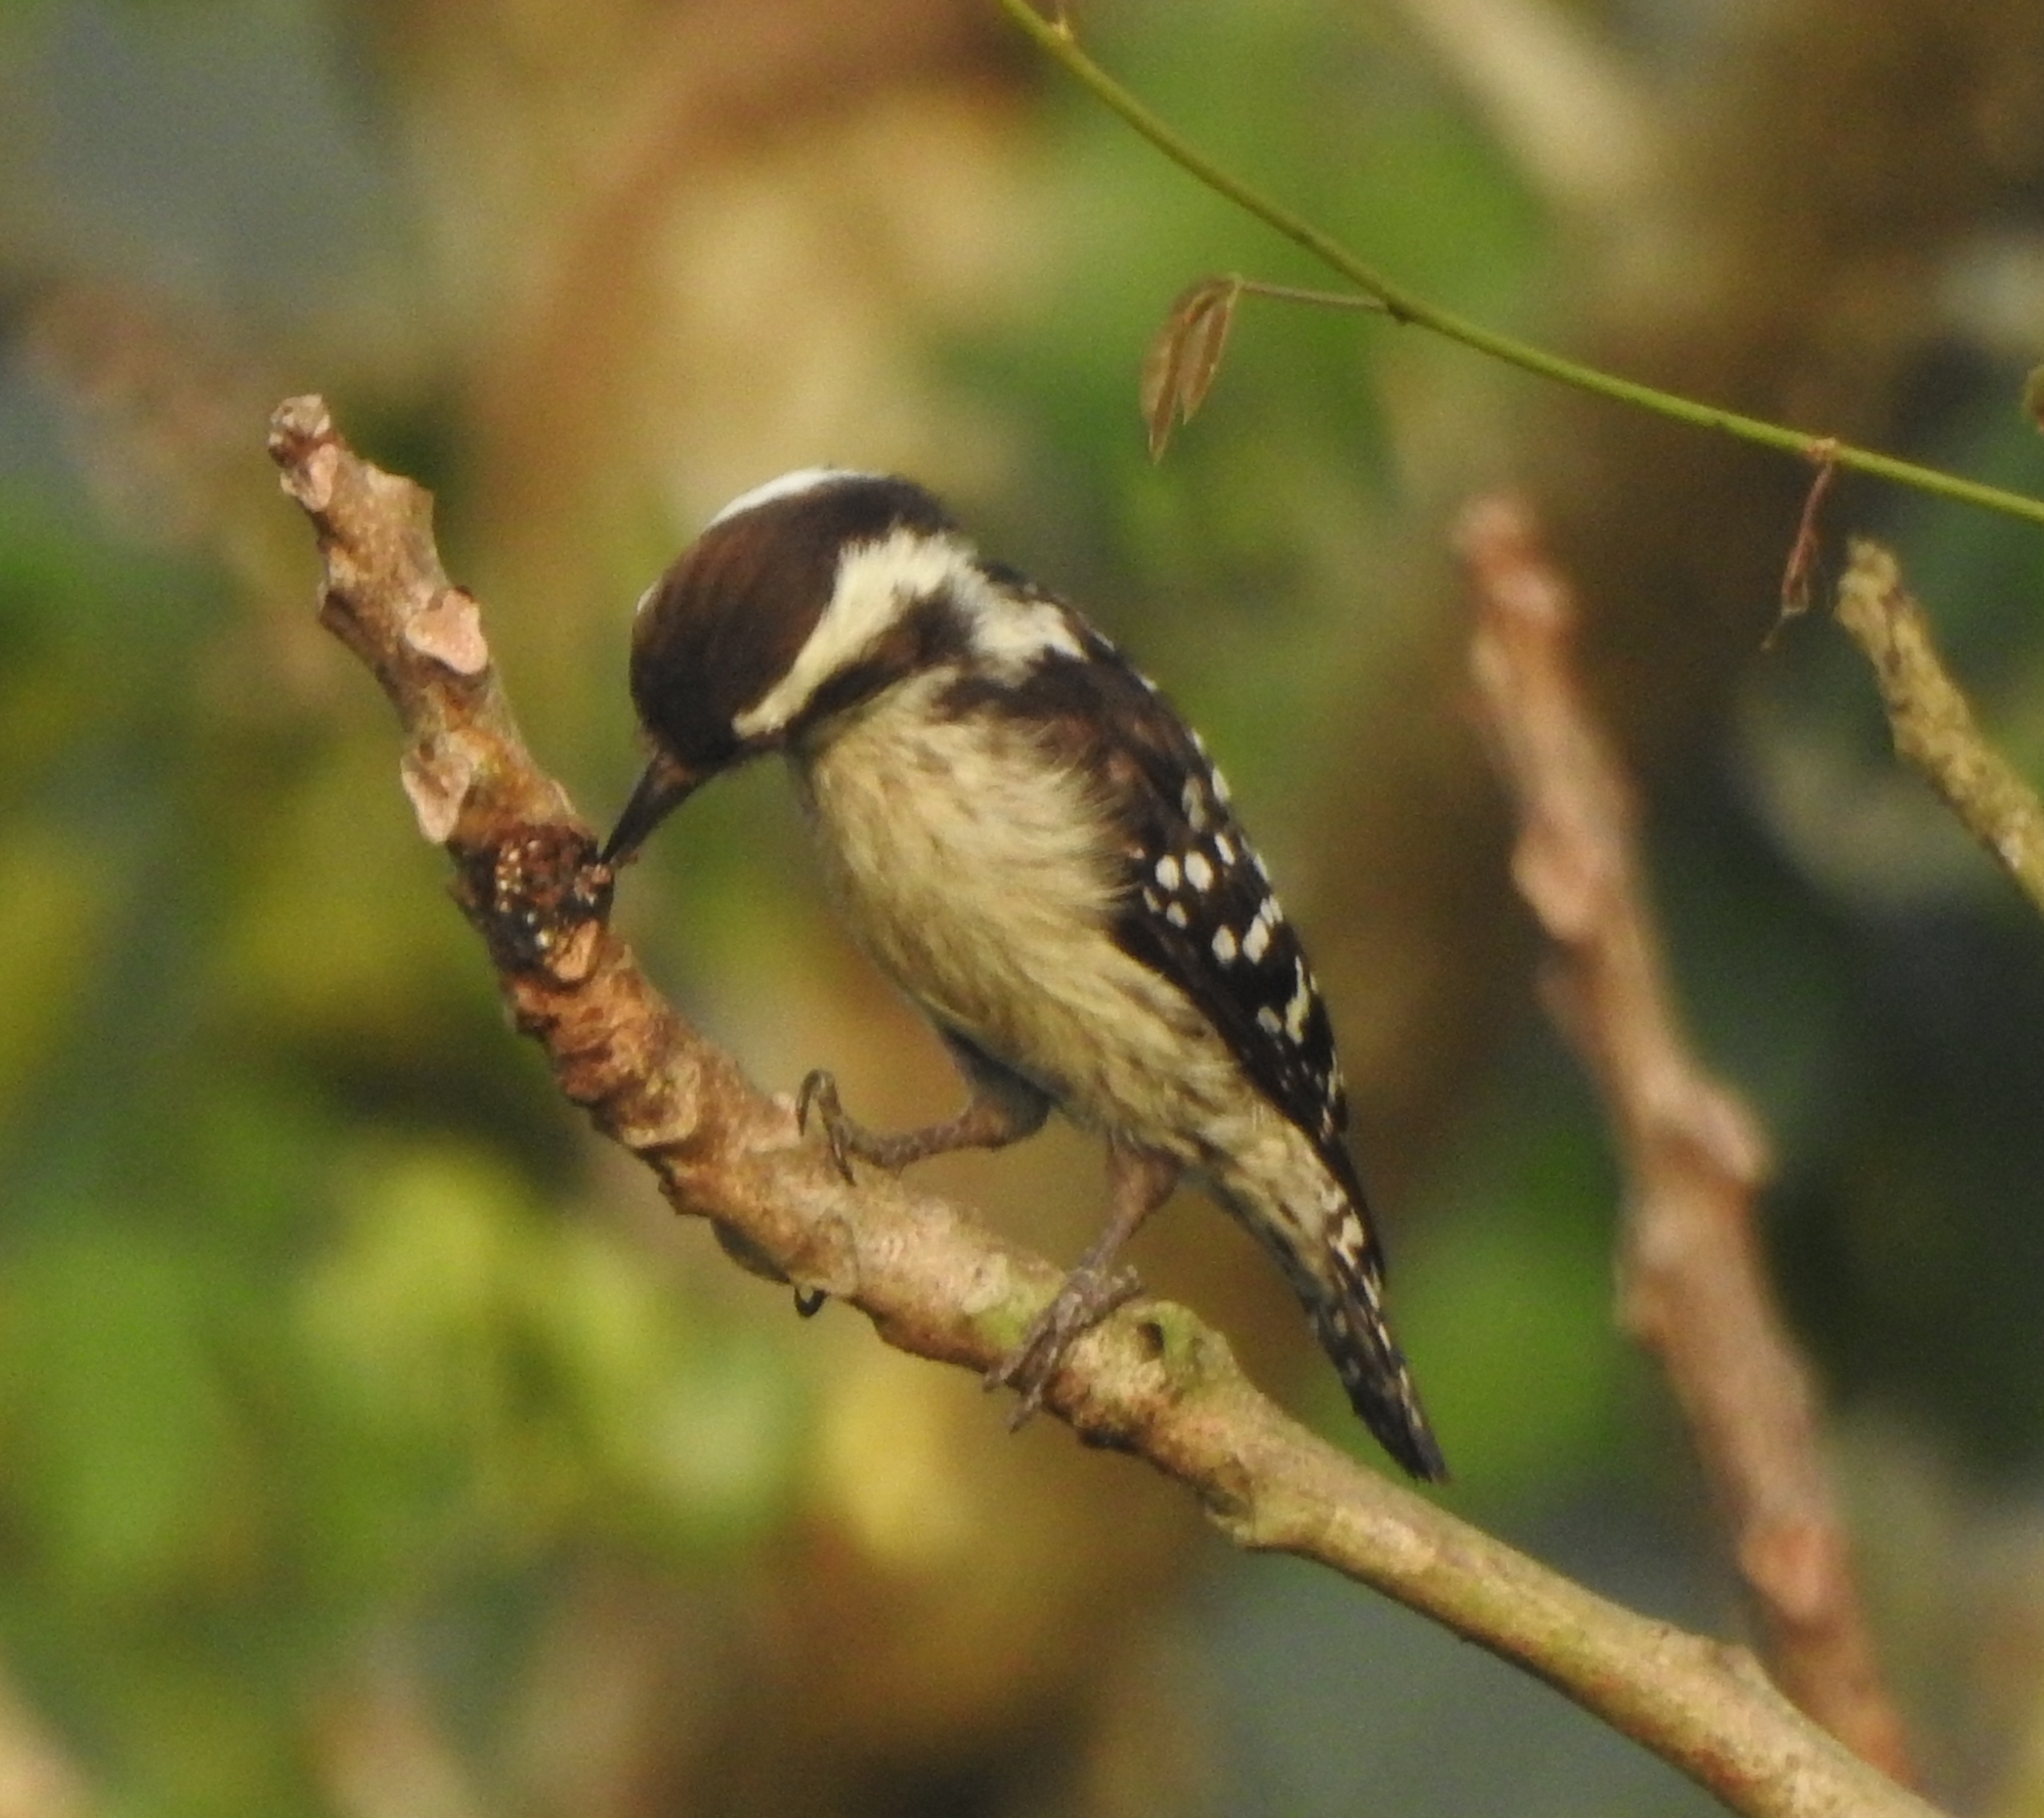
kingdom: Animalia
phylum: Chordata
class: Aves
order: Piciformes
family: Picidae
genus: Yungipicus
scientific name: Yungipicus nanus
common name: Brown-capped pygmy woodpecker
